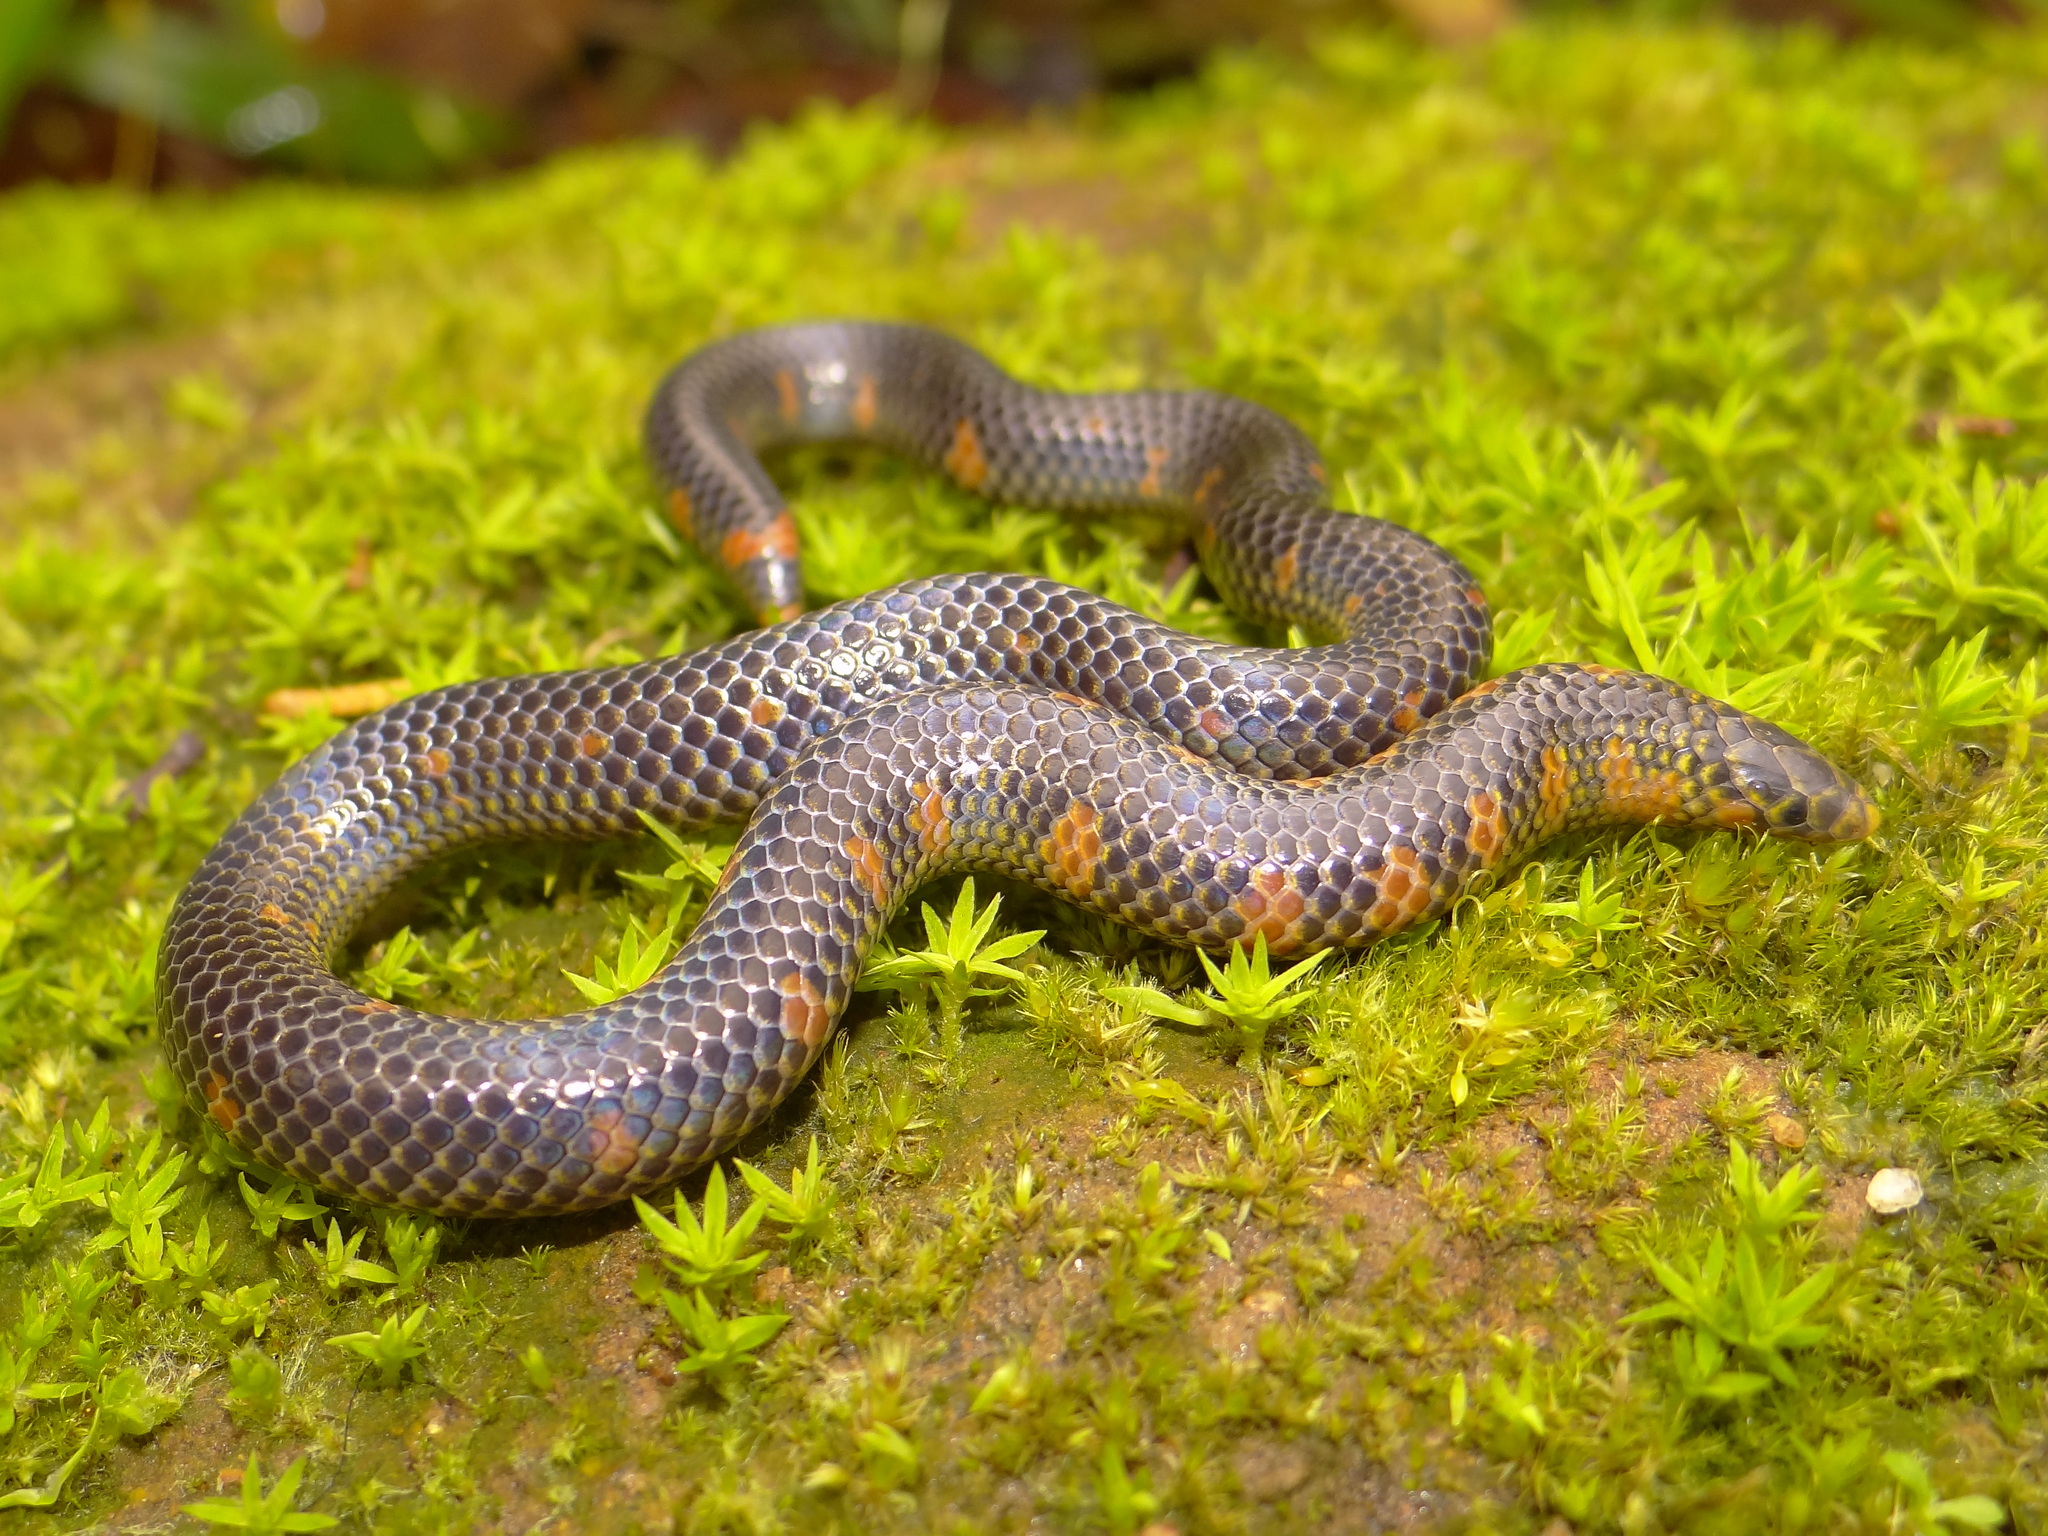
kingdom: Animalia
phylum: Chordata
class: Squamata
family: Uropeltidae
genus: Uropeltis
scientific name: Uropeltis maculata
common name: Spotted earth snake
